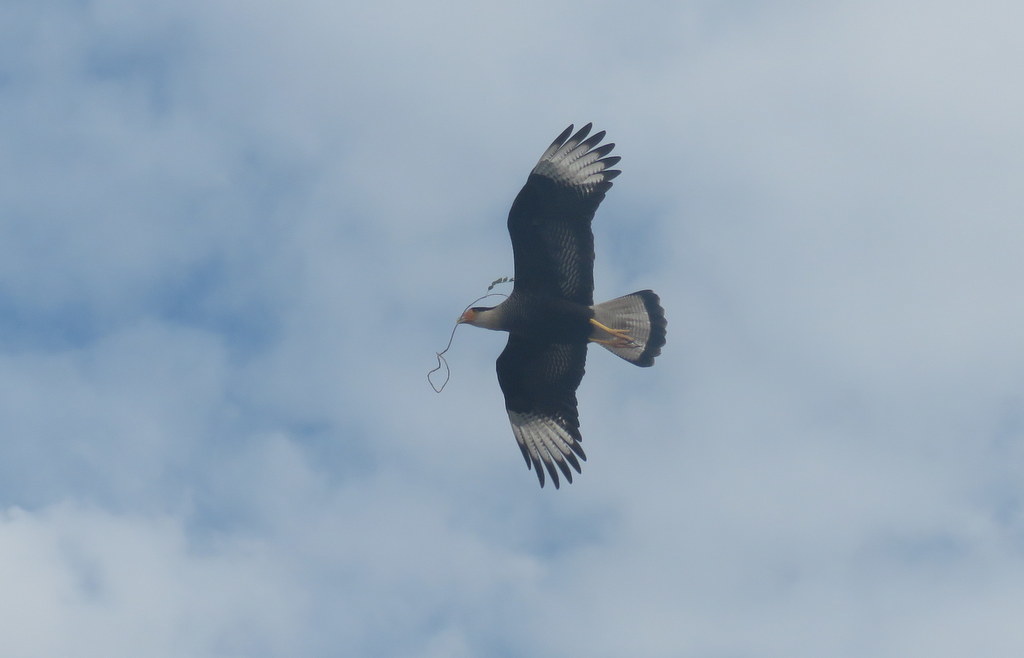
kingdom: Animalia
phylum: Chordata
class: Aves
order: Falconiformes
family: Falconidae
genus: Caracara
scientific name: Caracara plancus
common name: Southern caracara
